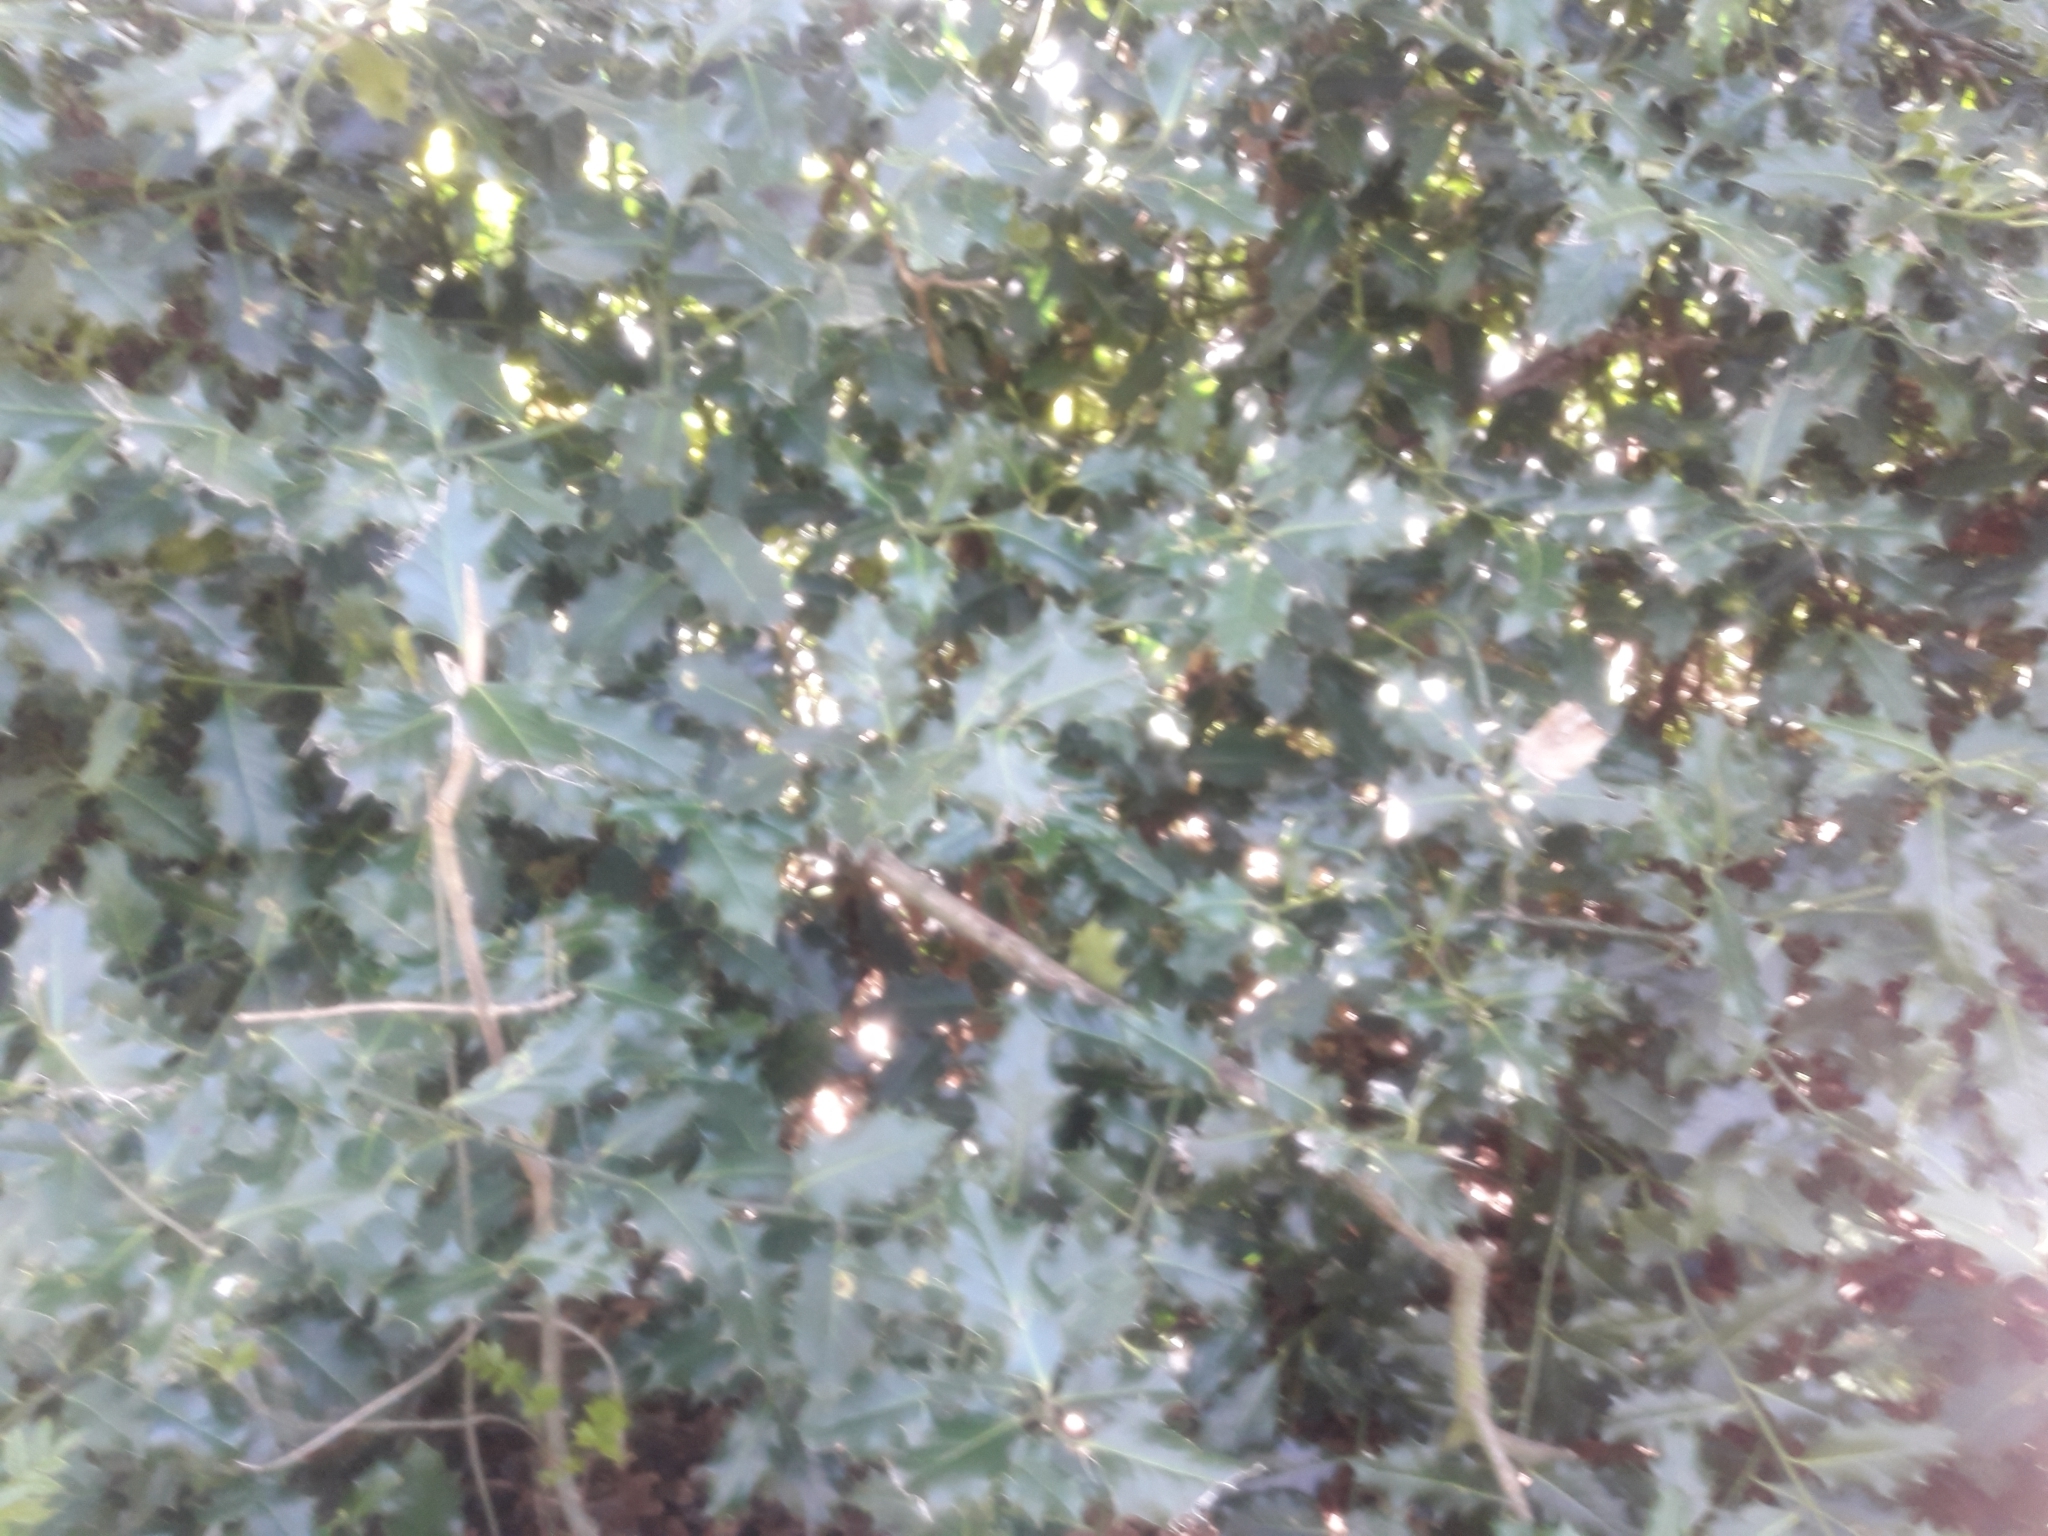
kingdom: Plantae
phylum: Tracheophyta
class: Magnoliopsida
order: Aquifoliales
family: Aquifoliaceae
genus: Ilex
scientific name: Ilex aquifolium
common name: English holly
